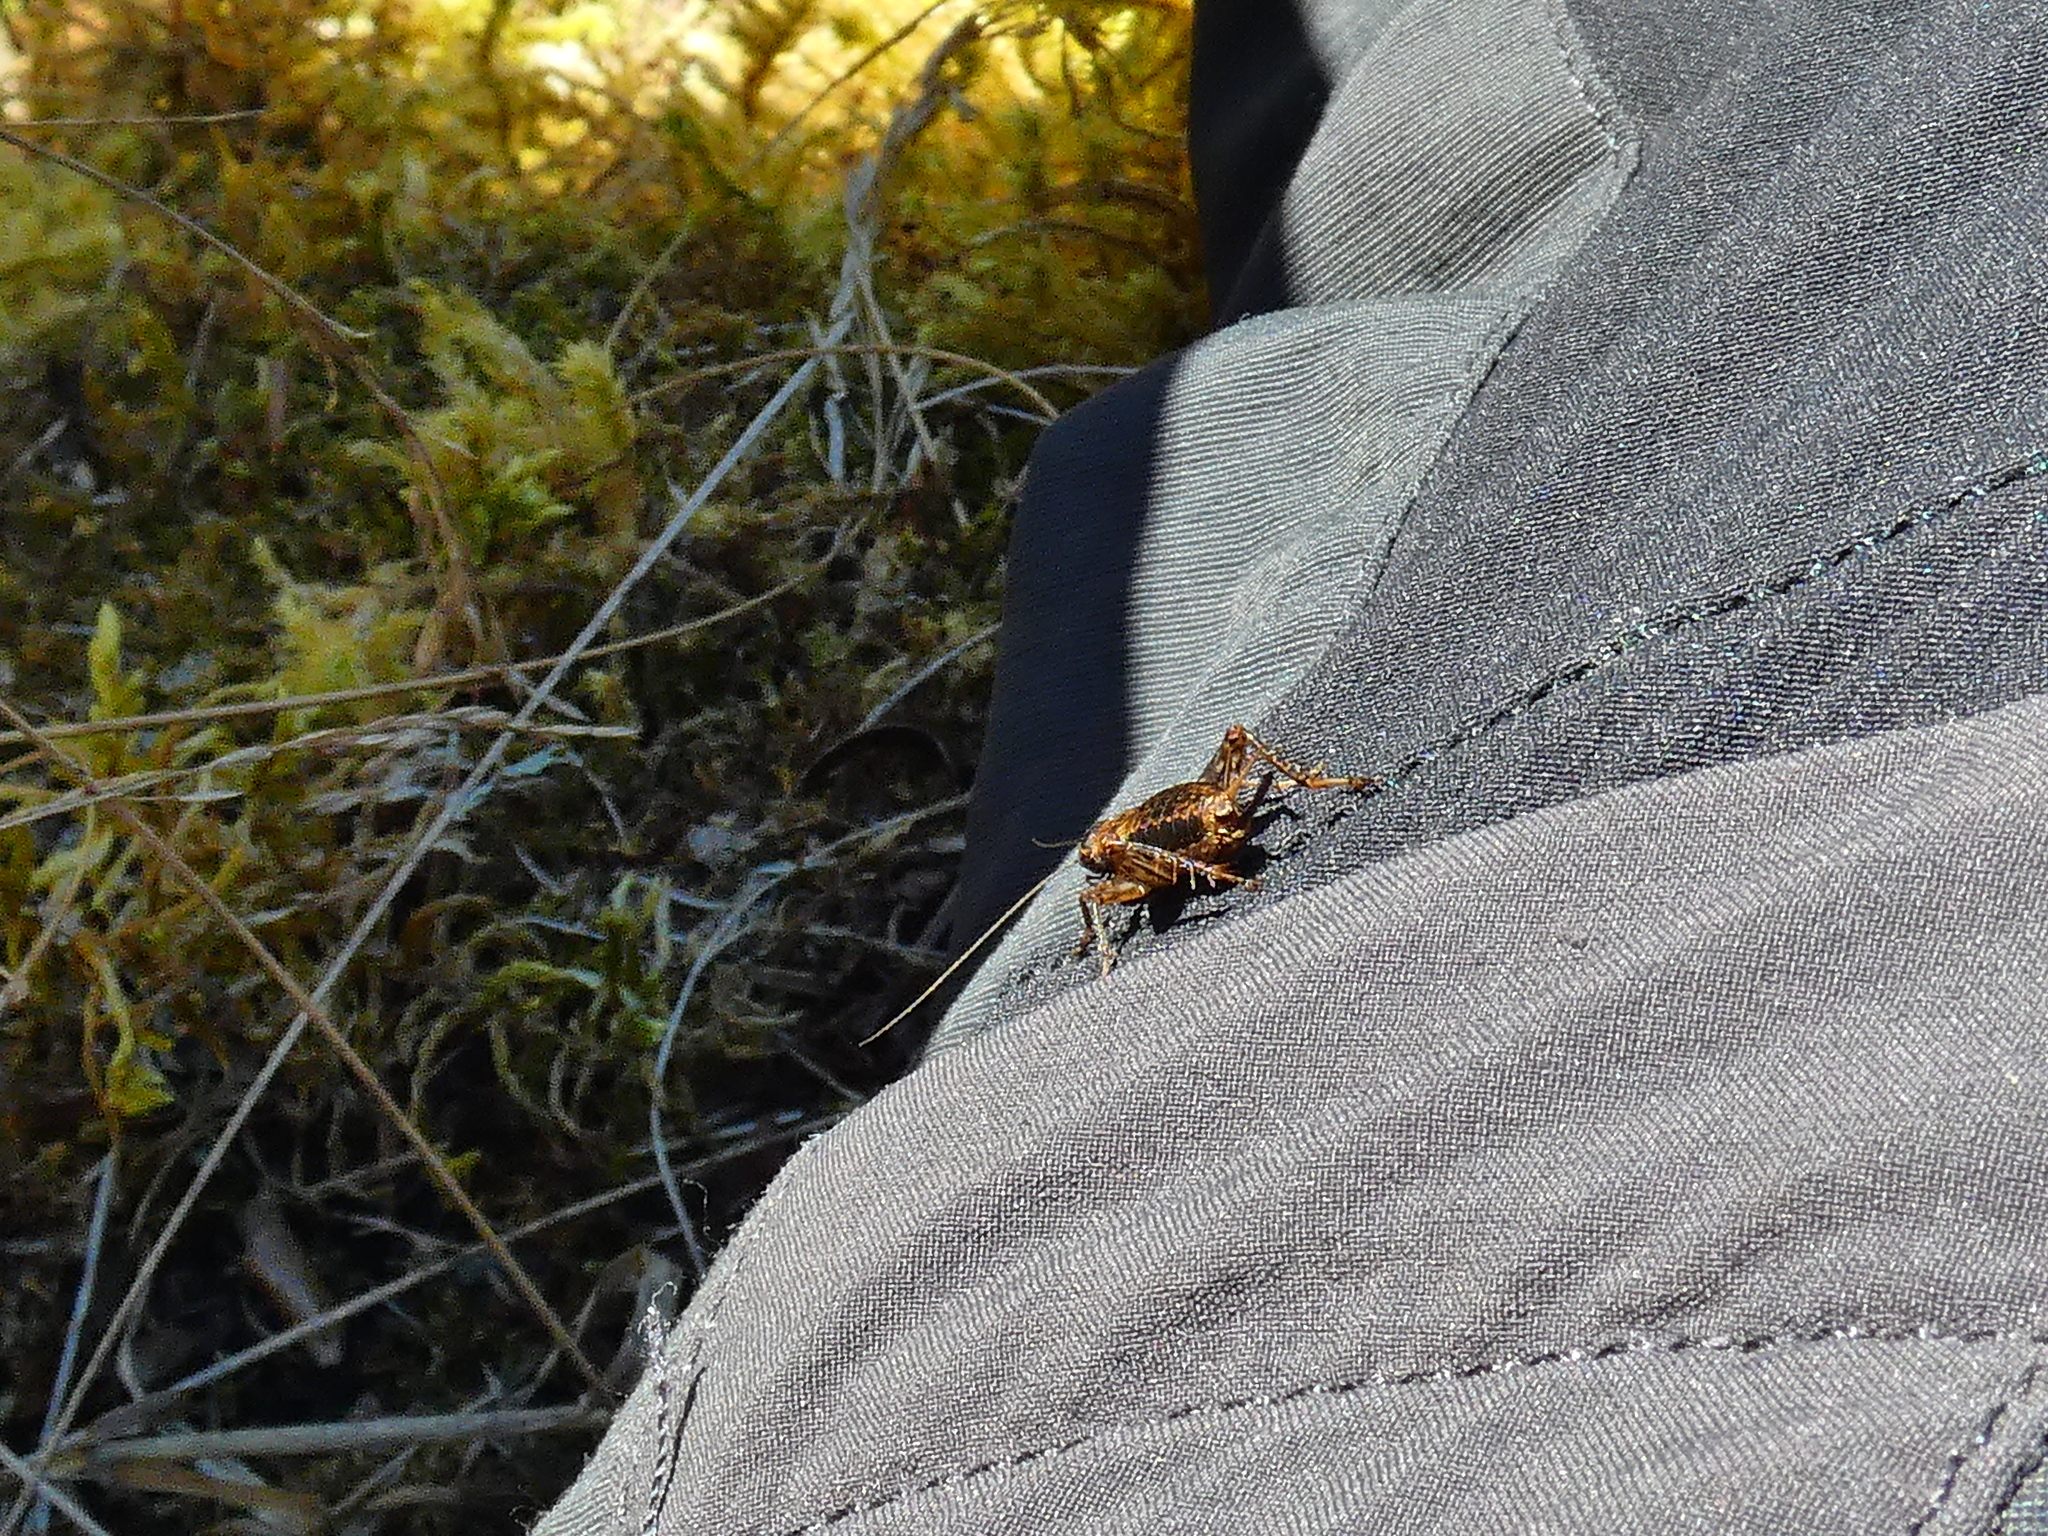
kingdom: Animalia
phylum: Arthropoda
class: Insecta
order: Orthoptera
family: Trigonidiidae
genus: Nemobius
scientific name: Nemobius sylvestris
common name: Wood-cricket
